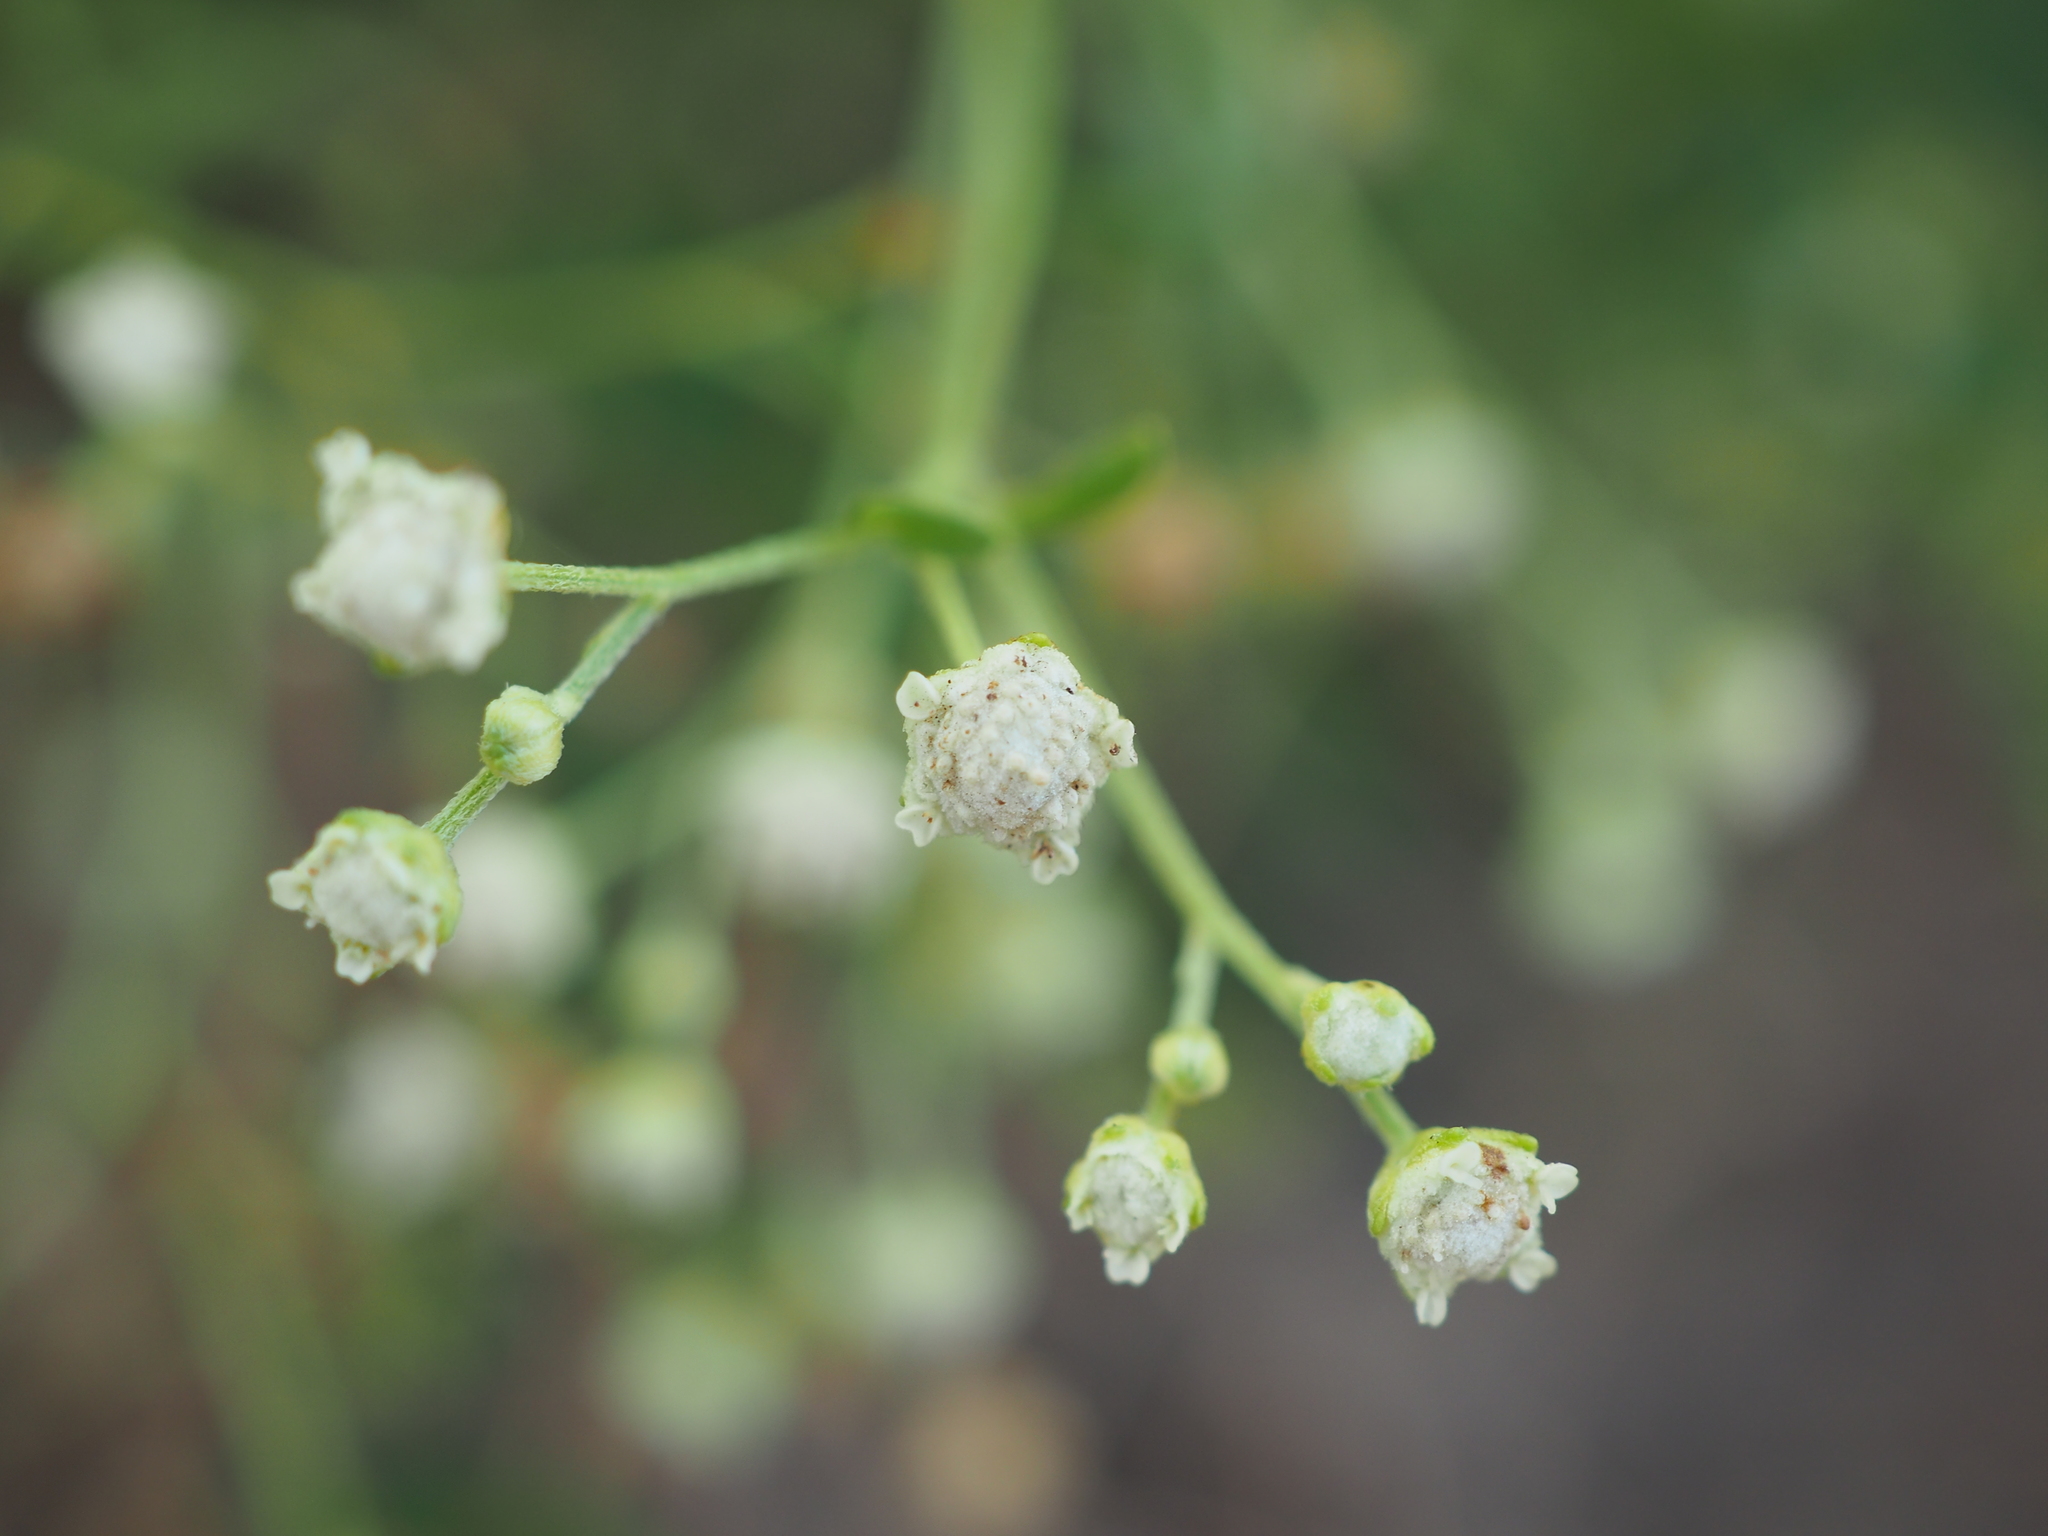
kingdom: Plantae
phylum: Tracheophyta
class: Magnoliopsida
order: Asterales
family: Asteraceae
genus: Parthenium
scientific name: Parthenium hysterophorus
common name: Santa maria feverfew
